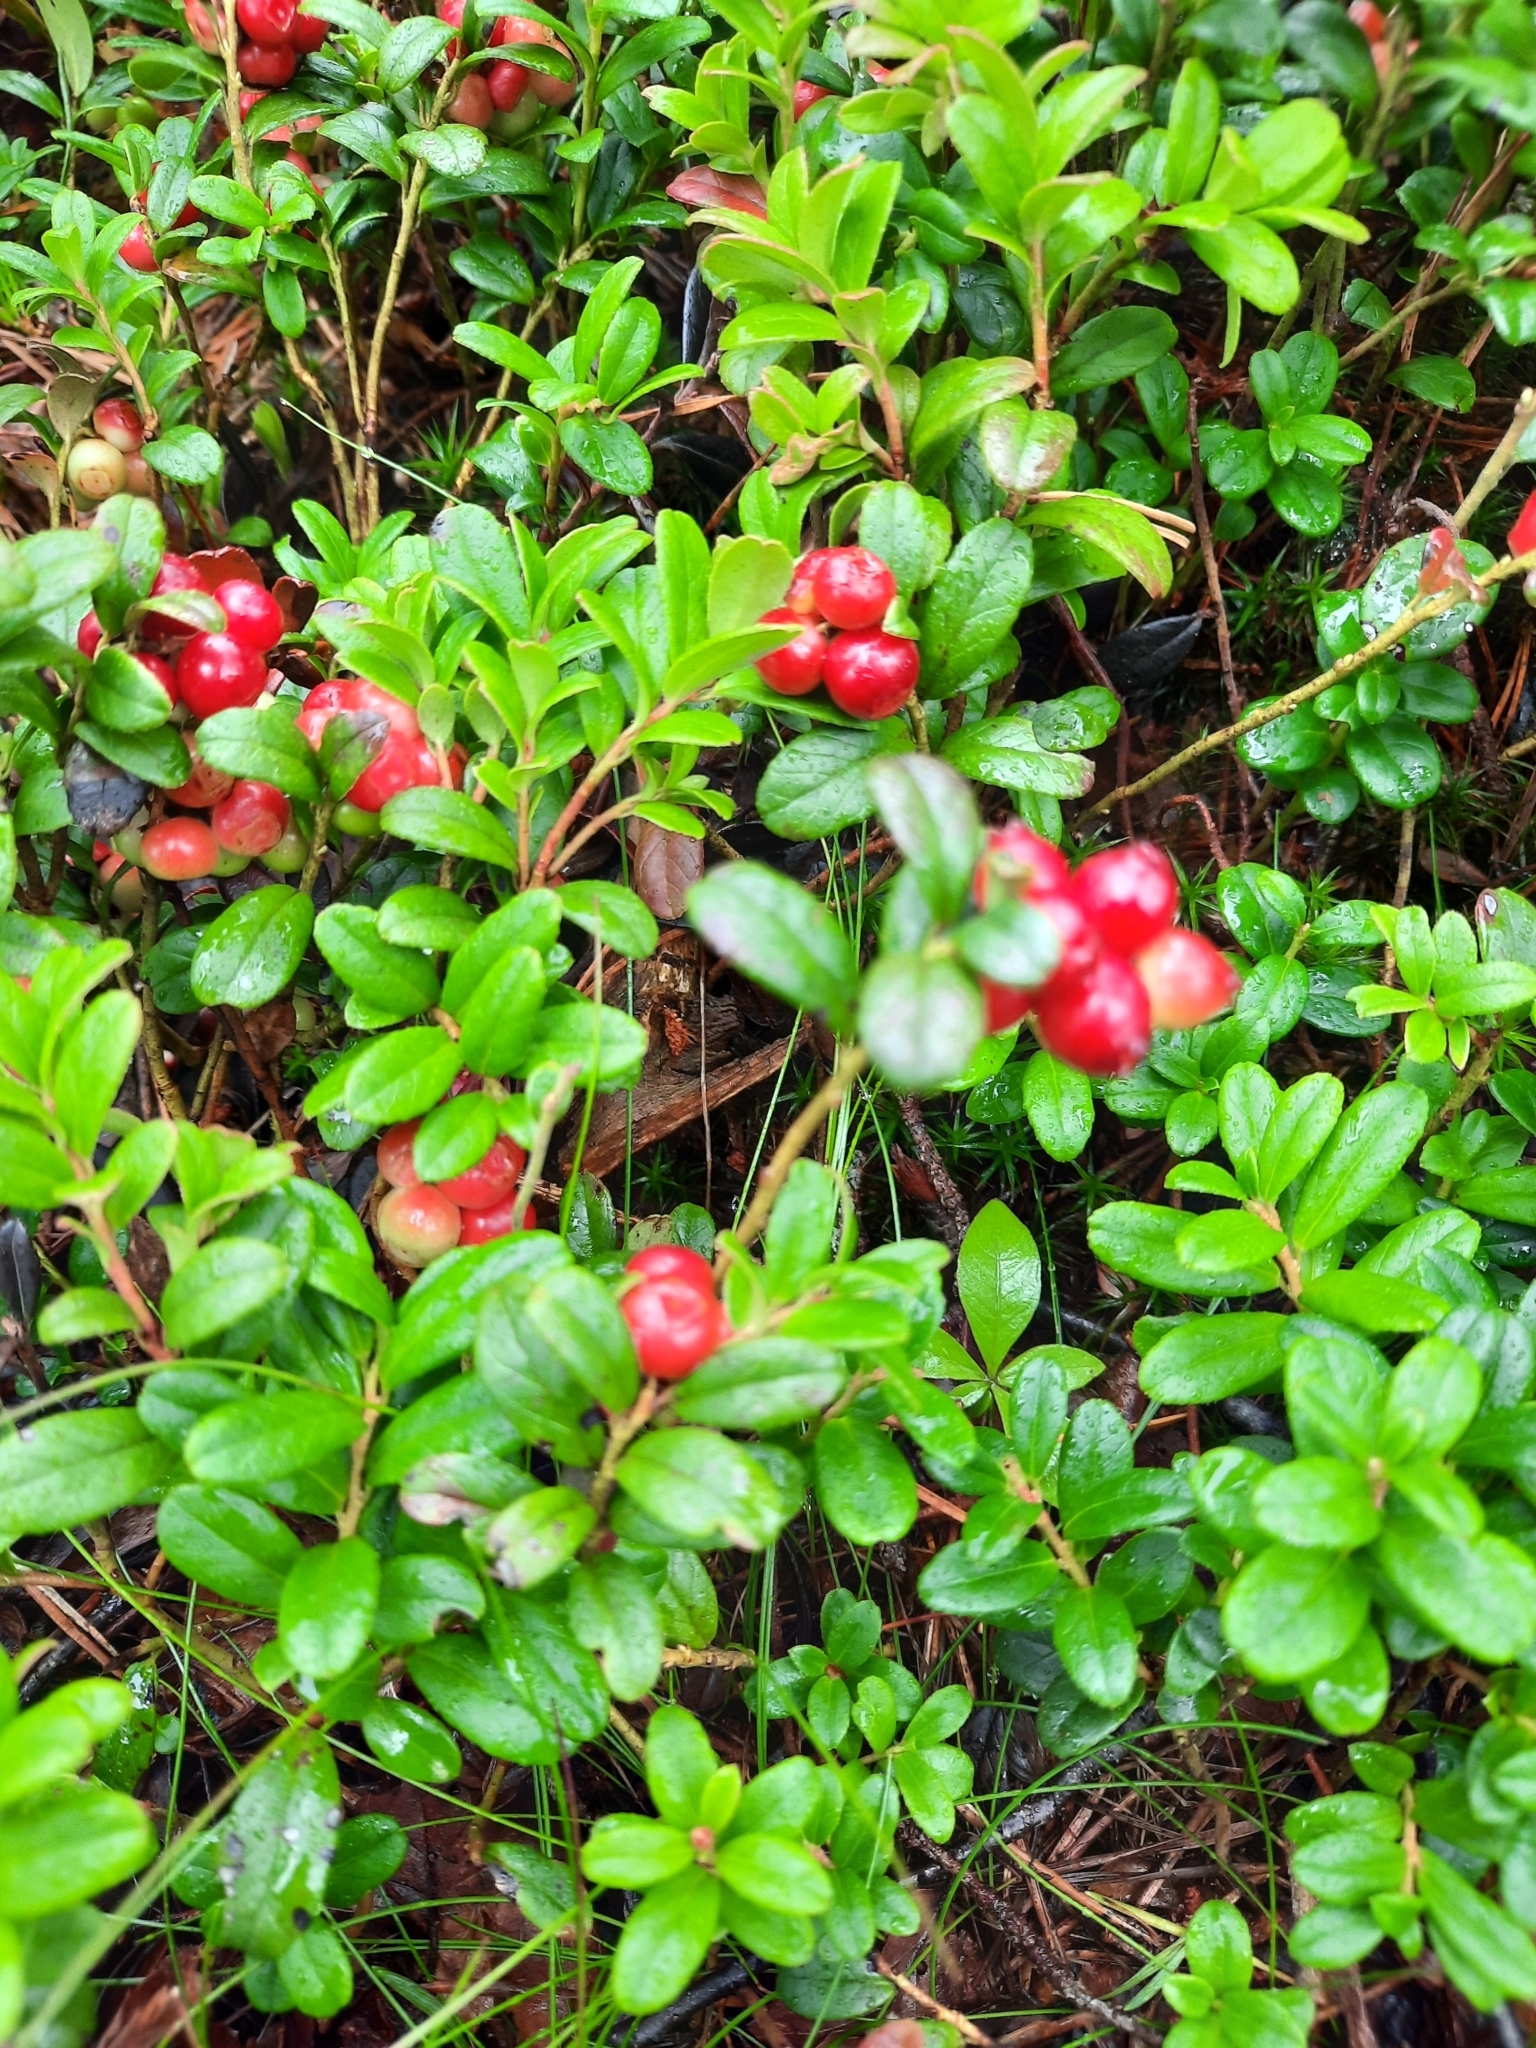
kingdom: Plantae
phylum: Tracheophyta
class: Magnoliopsida
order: Ericales
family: Ericaceae
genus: Vaccinium
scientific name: Vaccinium vitis-idaea
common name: Cowberry
